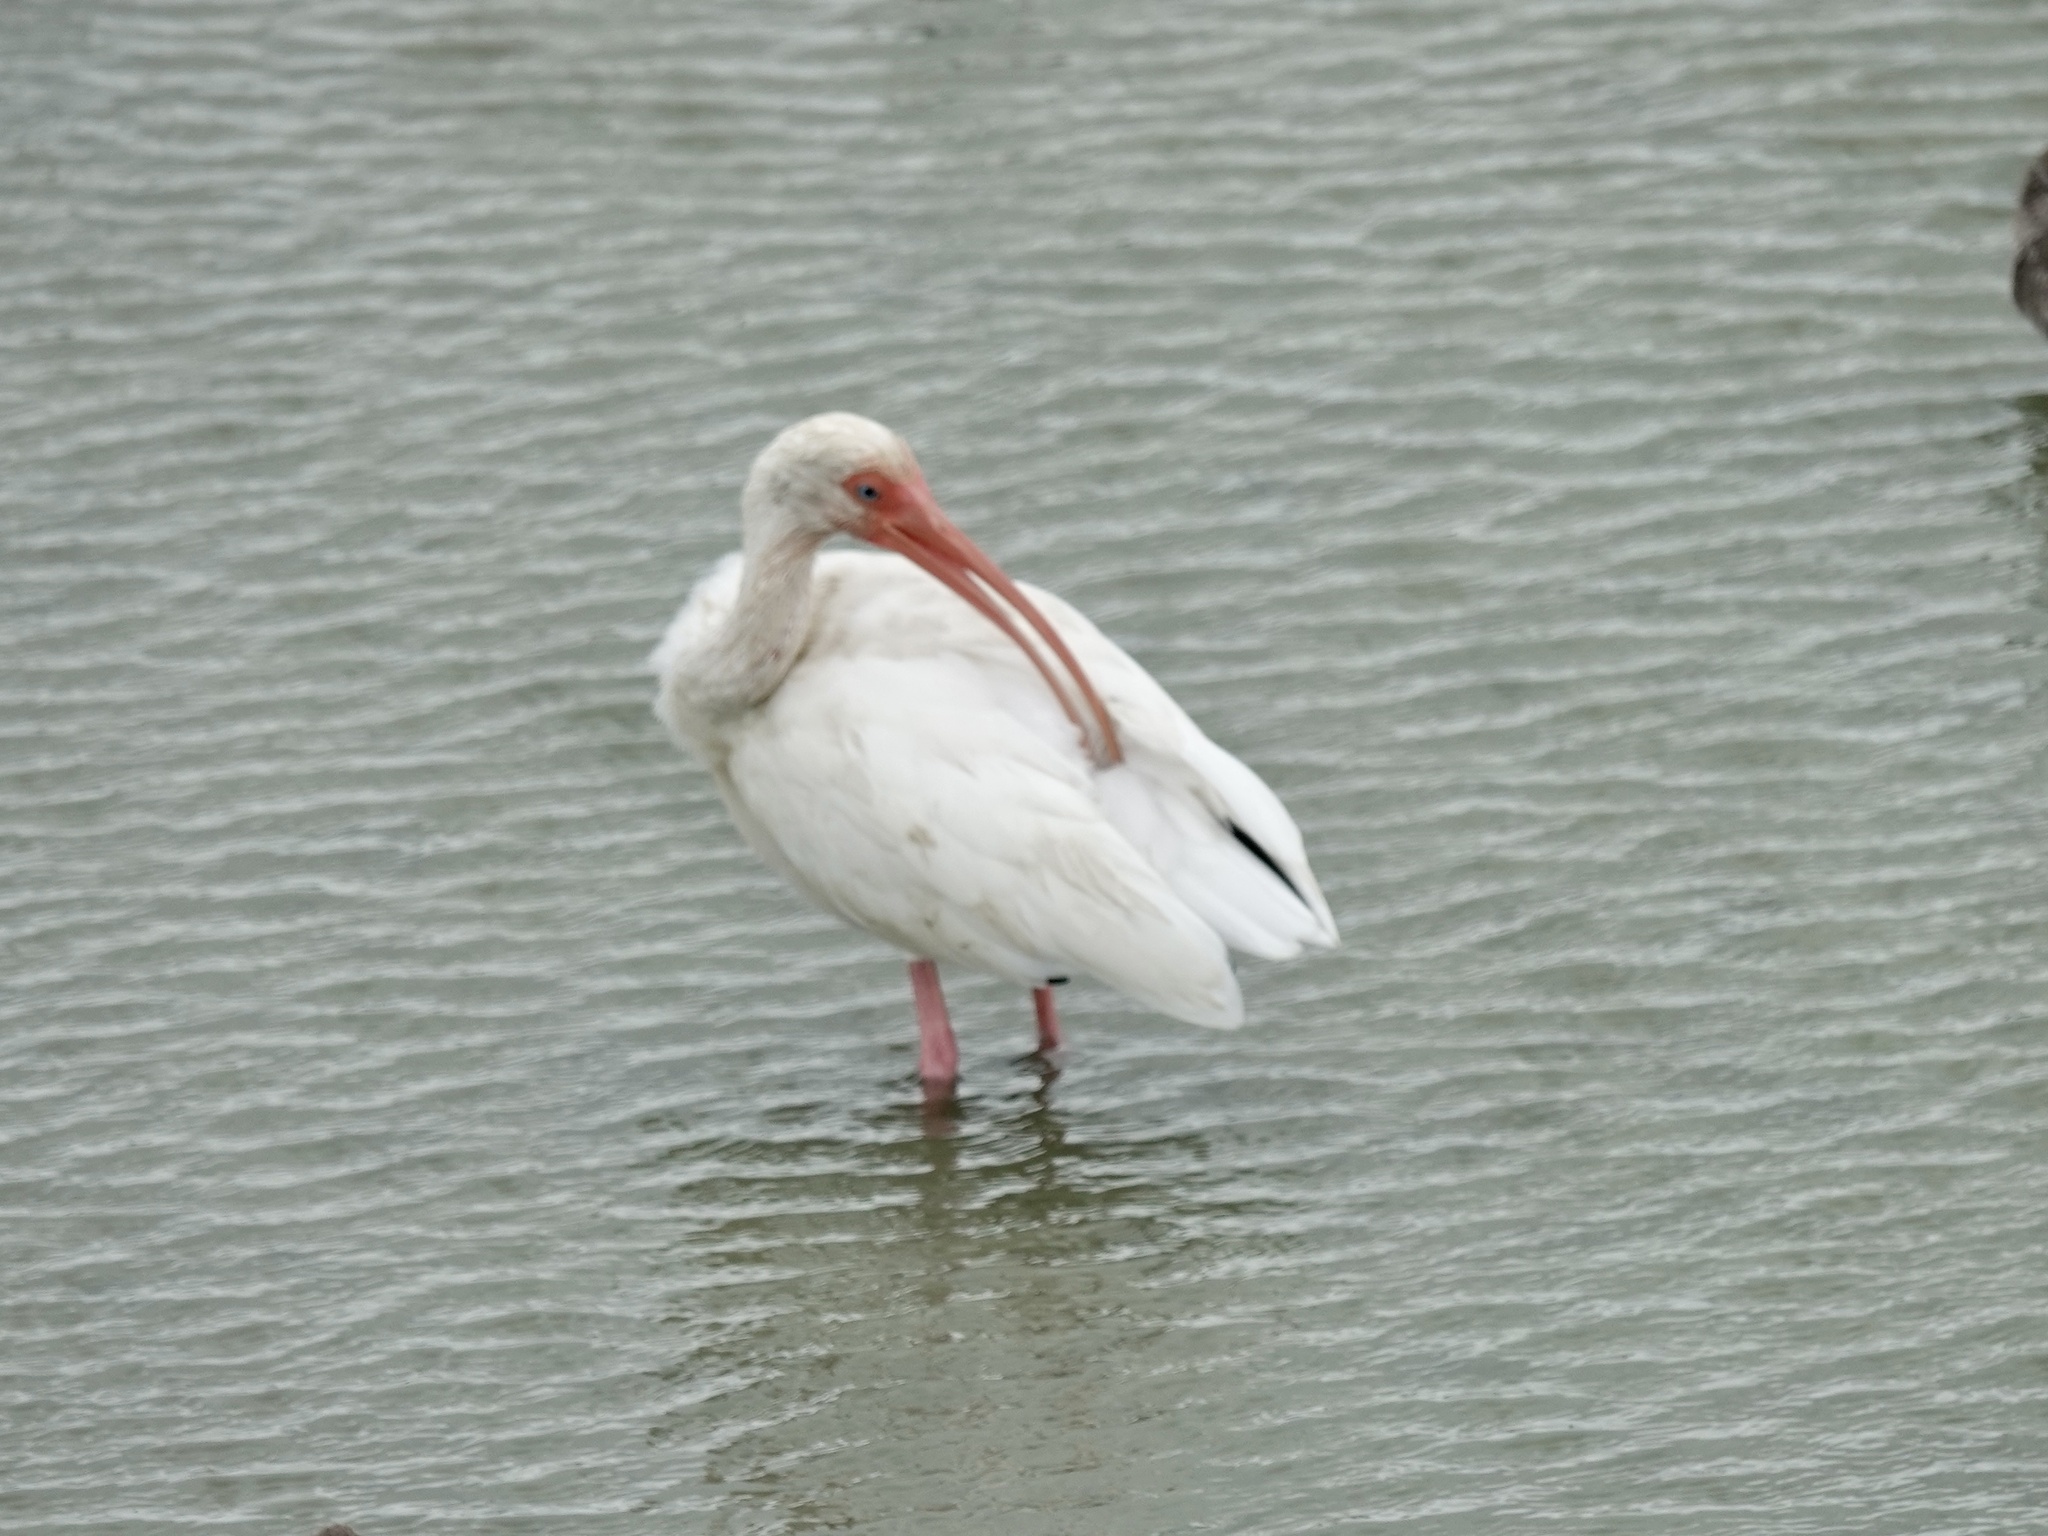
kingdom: Animalia
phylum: Chordata
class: Aves
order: Pelecaniformes
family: Threskiornithidae
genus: Eudocimus
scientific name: Eudocimus albus
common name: White ibis
